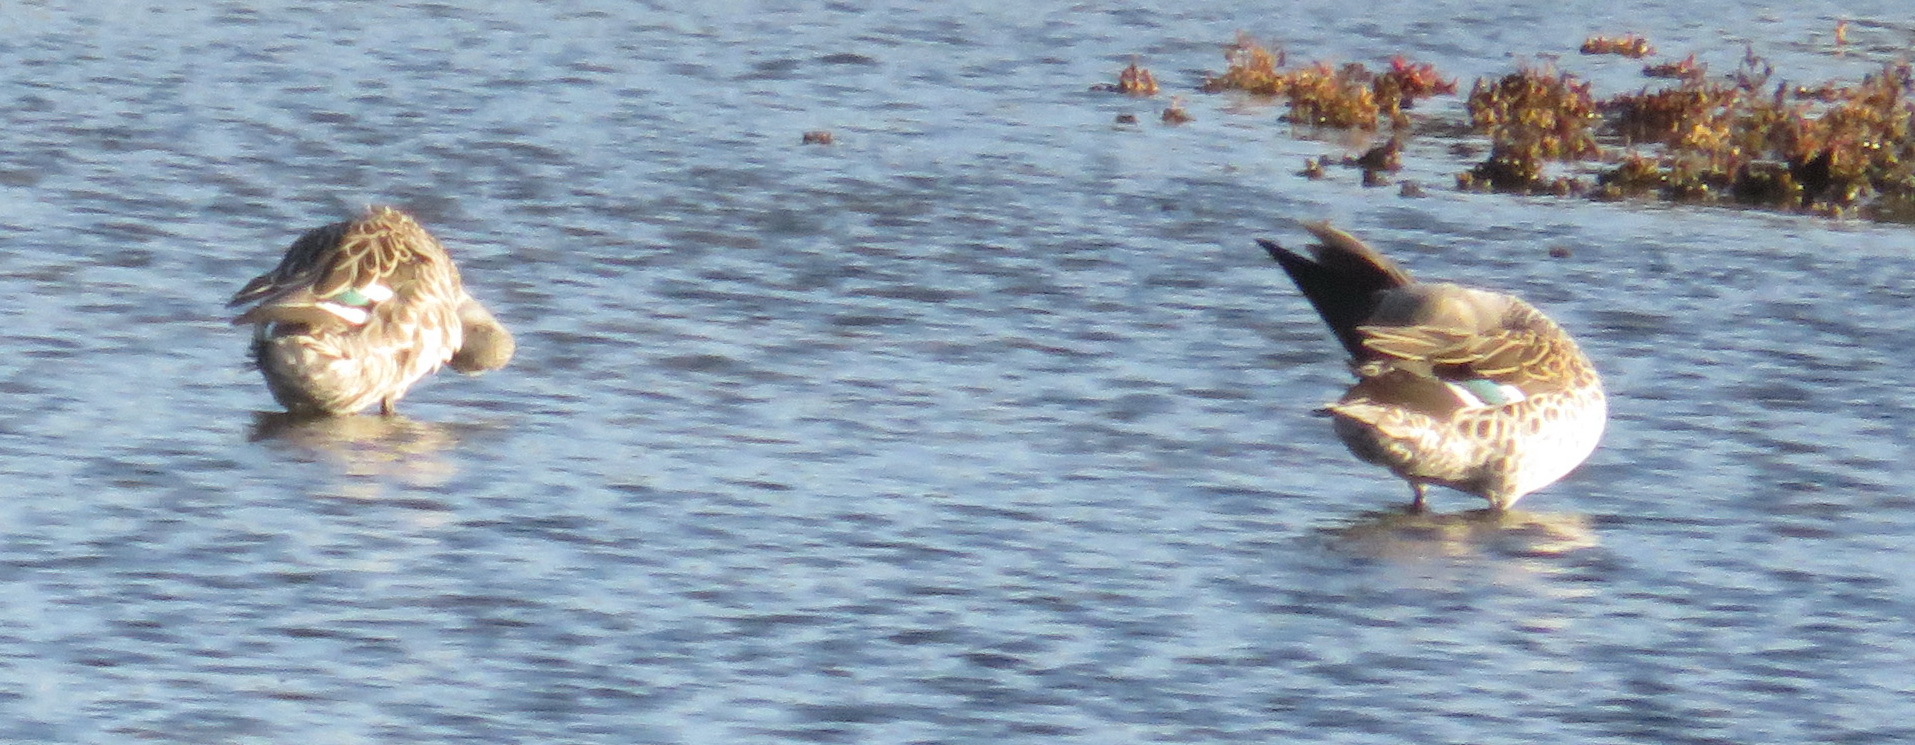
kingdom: Animalia
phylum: Chordata
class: Aves
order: Anseriformes
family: Anatidae
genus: Anas
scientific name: Anas undulata
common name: Yellow-billed duck
